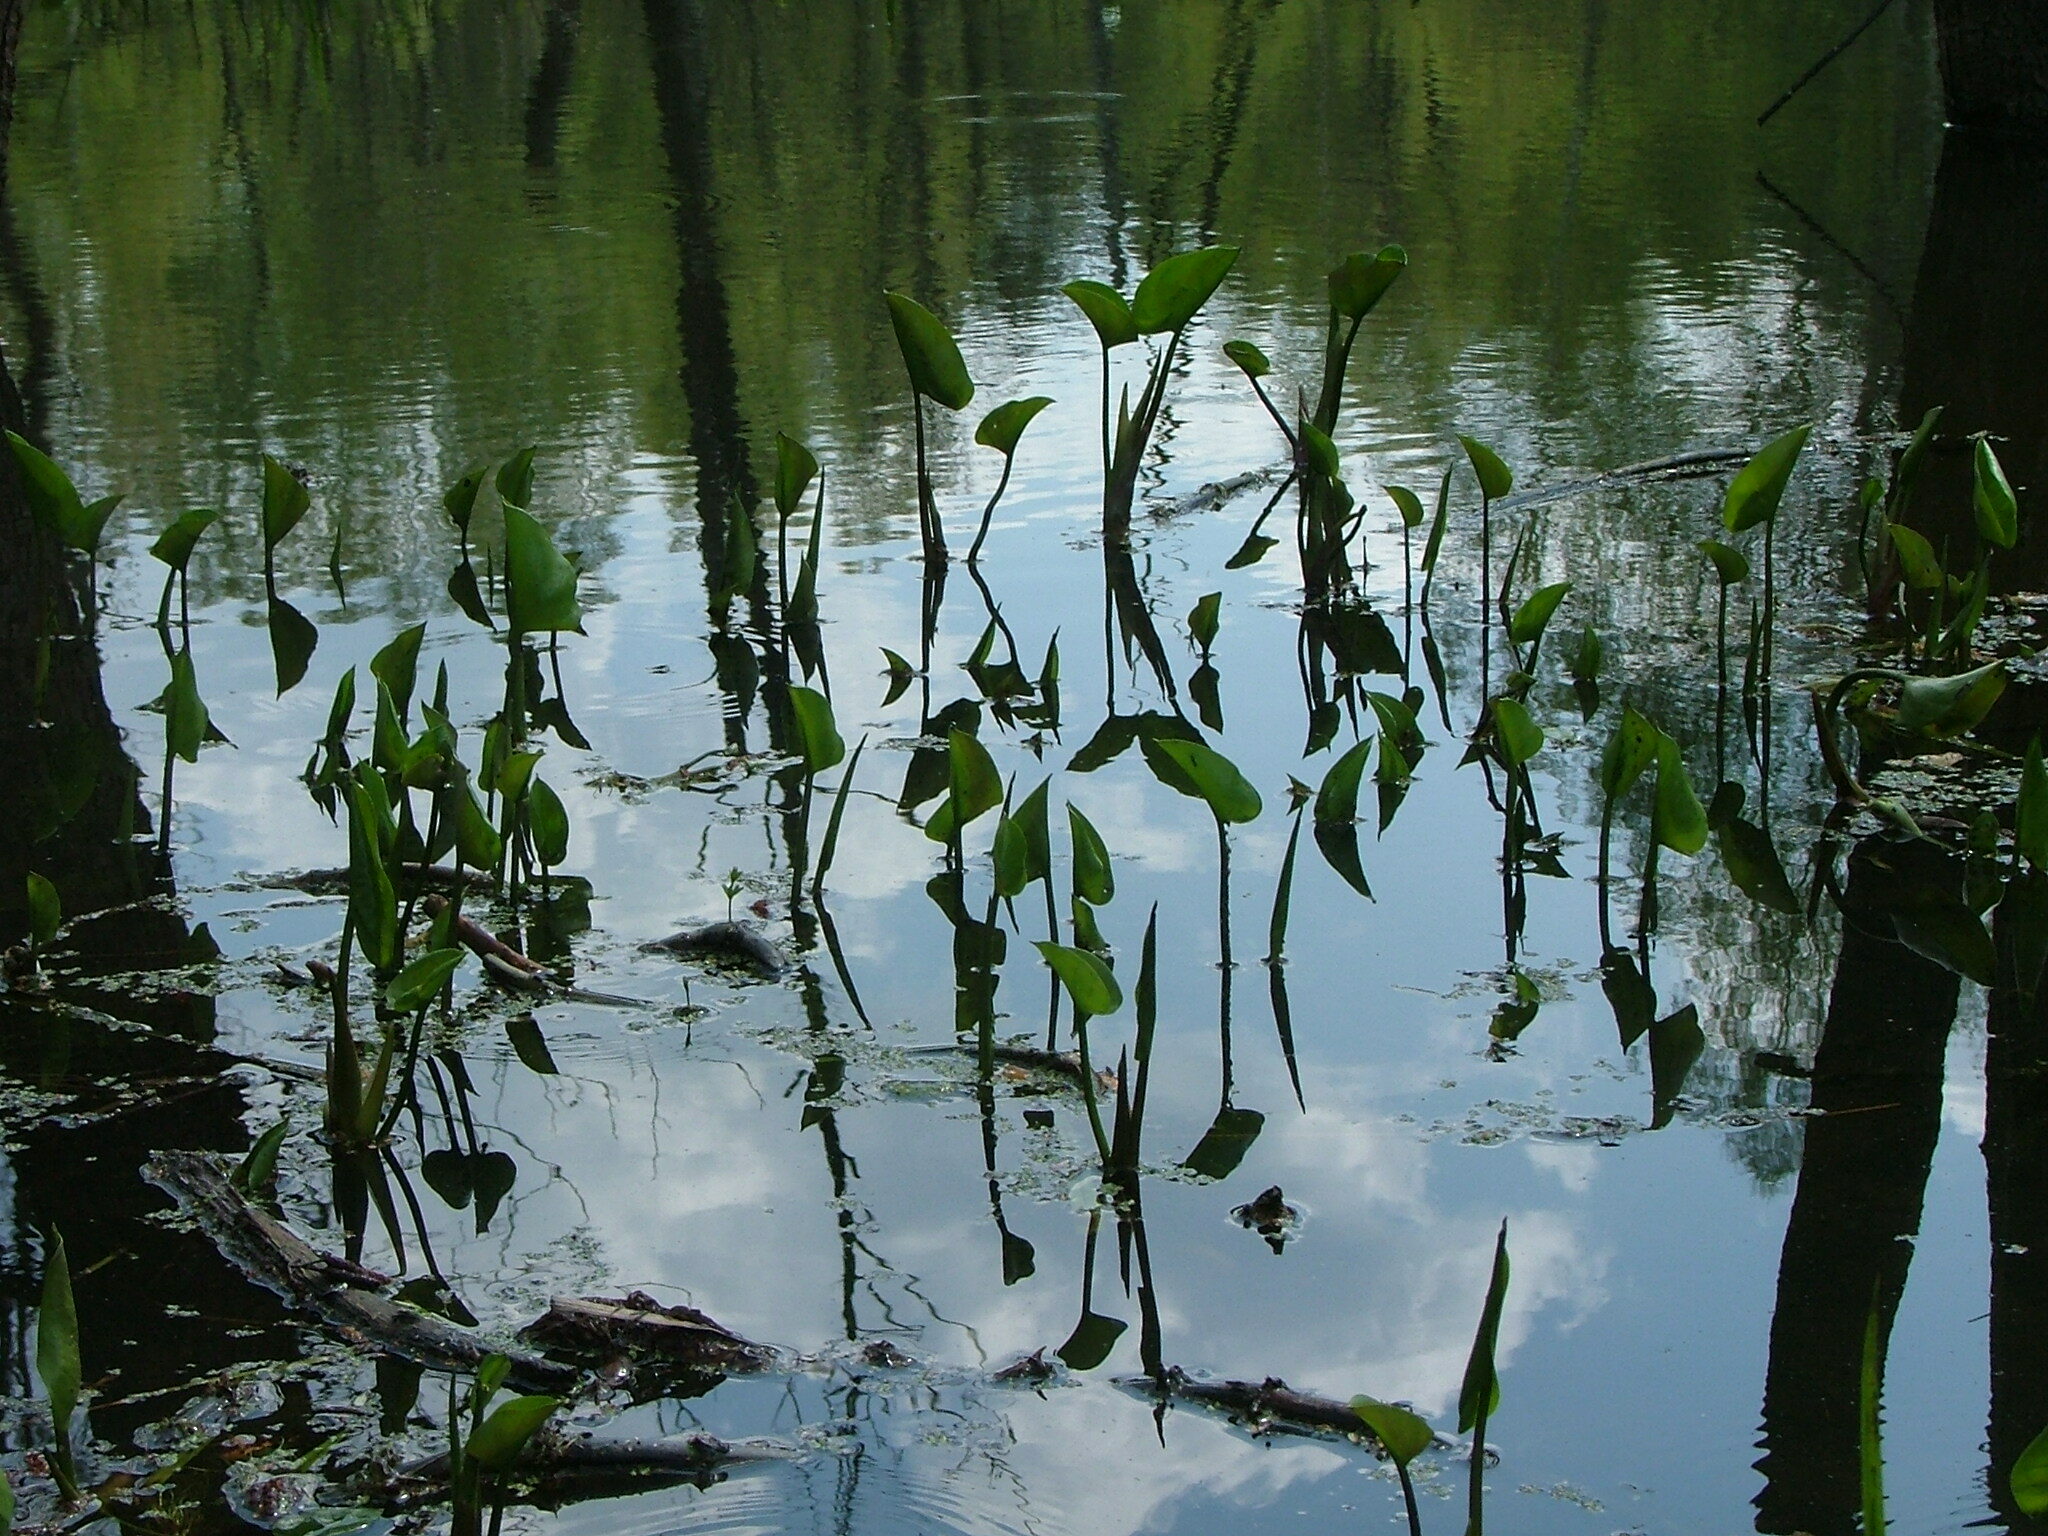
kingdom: Plantae
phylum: Tracheophyta
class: Liliopsida
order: Alismatales
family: Araceae
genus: Calla
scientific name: Calla palustris
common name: Bog arum
